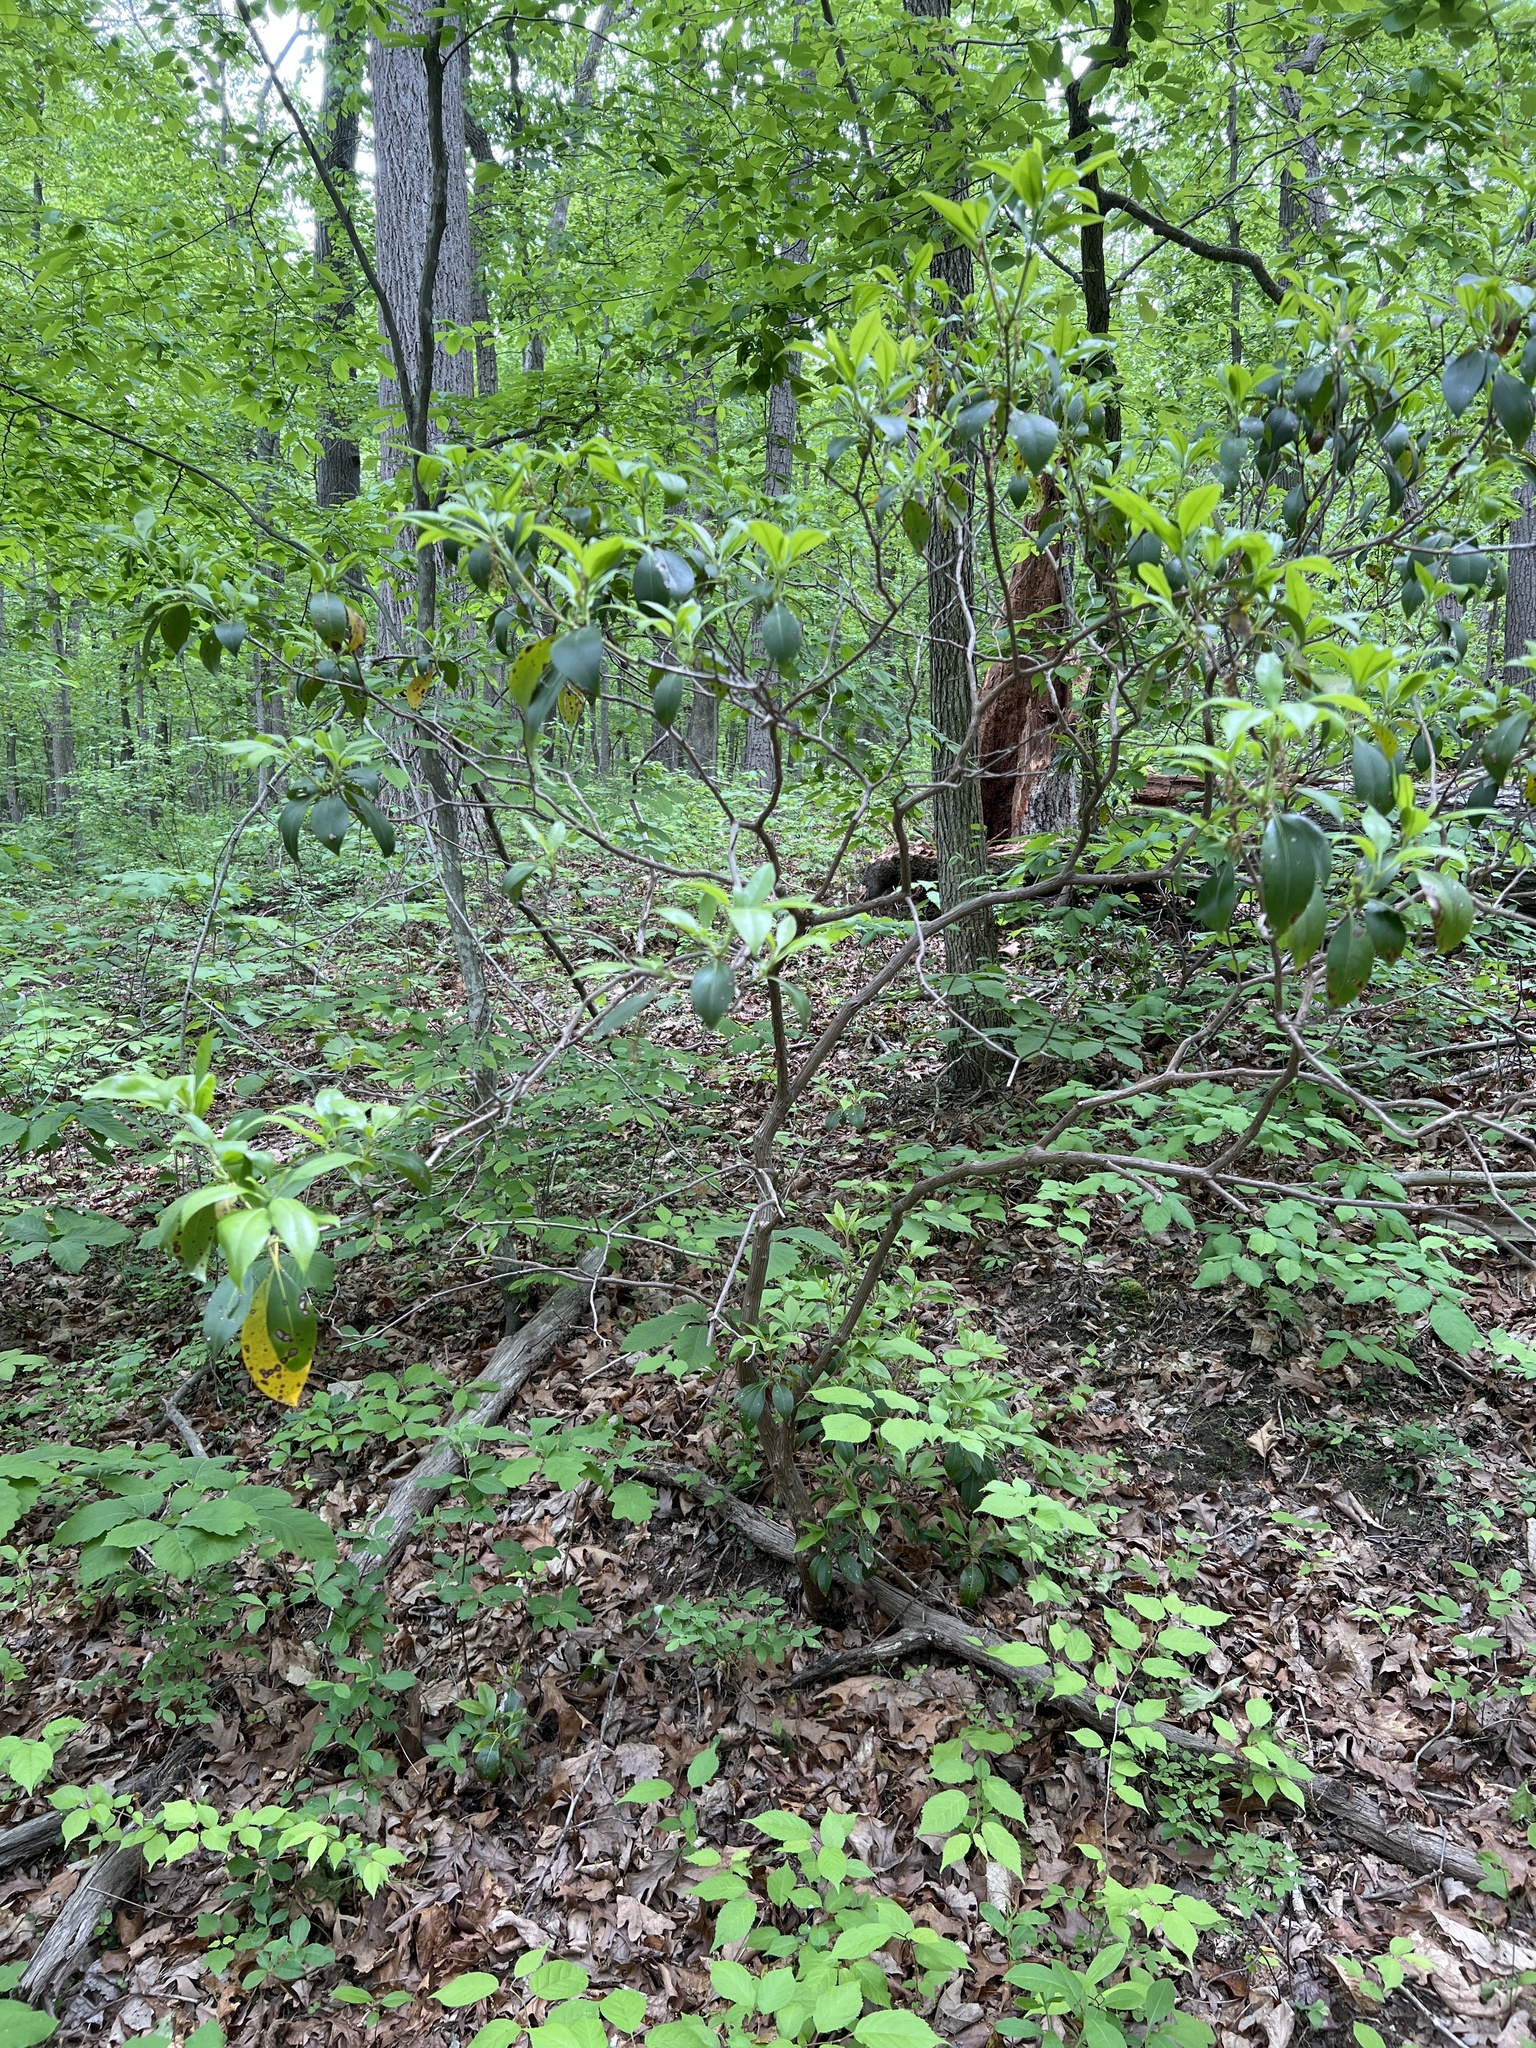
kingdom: Plantae
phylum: Tracheophyta
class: Magnoliopsida
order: Ericales
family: Ericaceae
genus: Kalmia
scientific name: Kalmia latifolia
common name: Mountain-laurel
